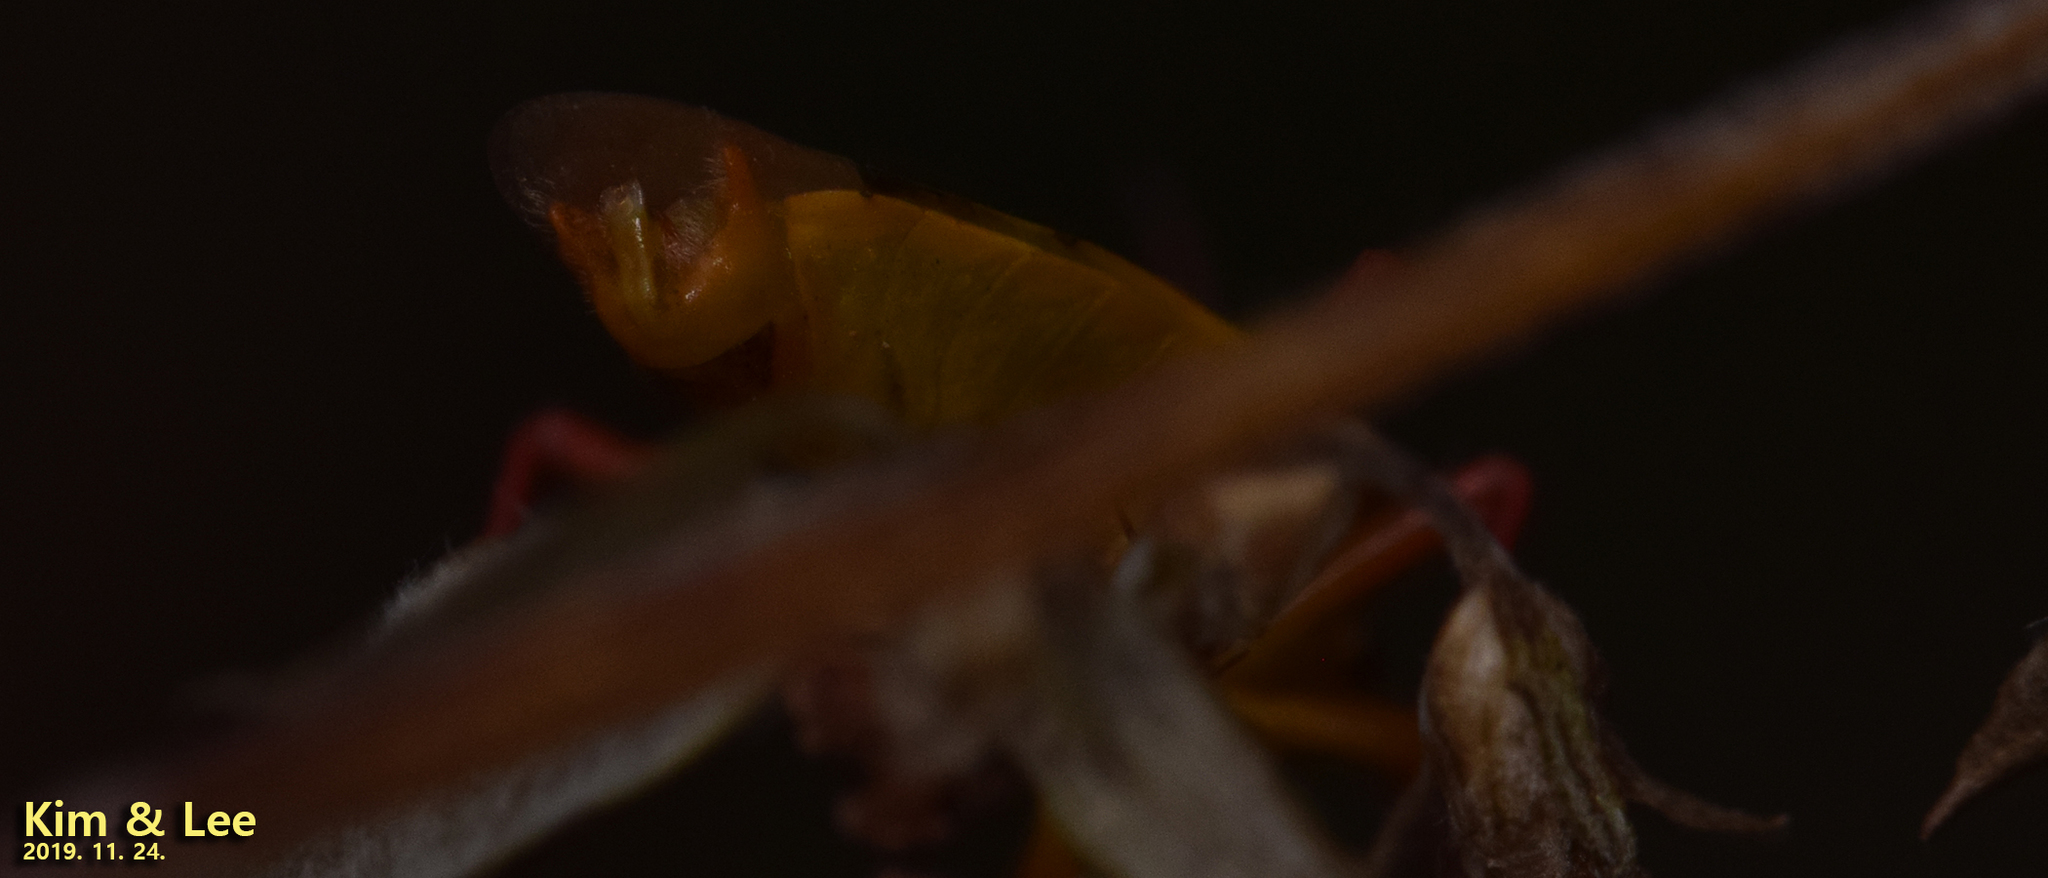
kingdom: Animalia
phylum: Arthropoda
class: Insecta
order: Hemiptera
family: Urostylididae
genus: Urostylis
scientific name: Urostylis hubeiensis
